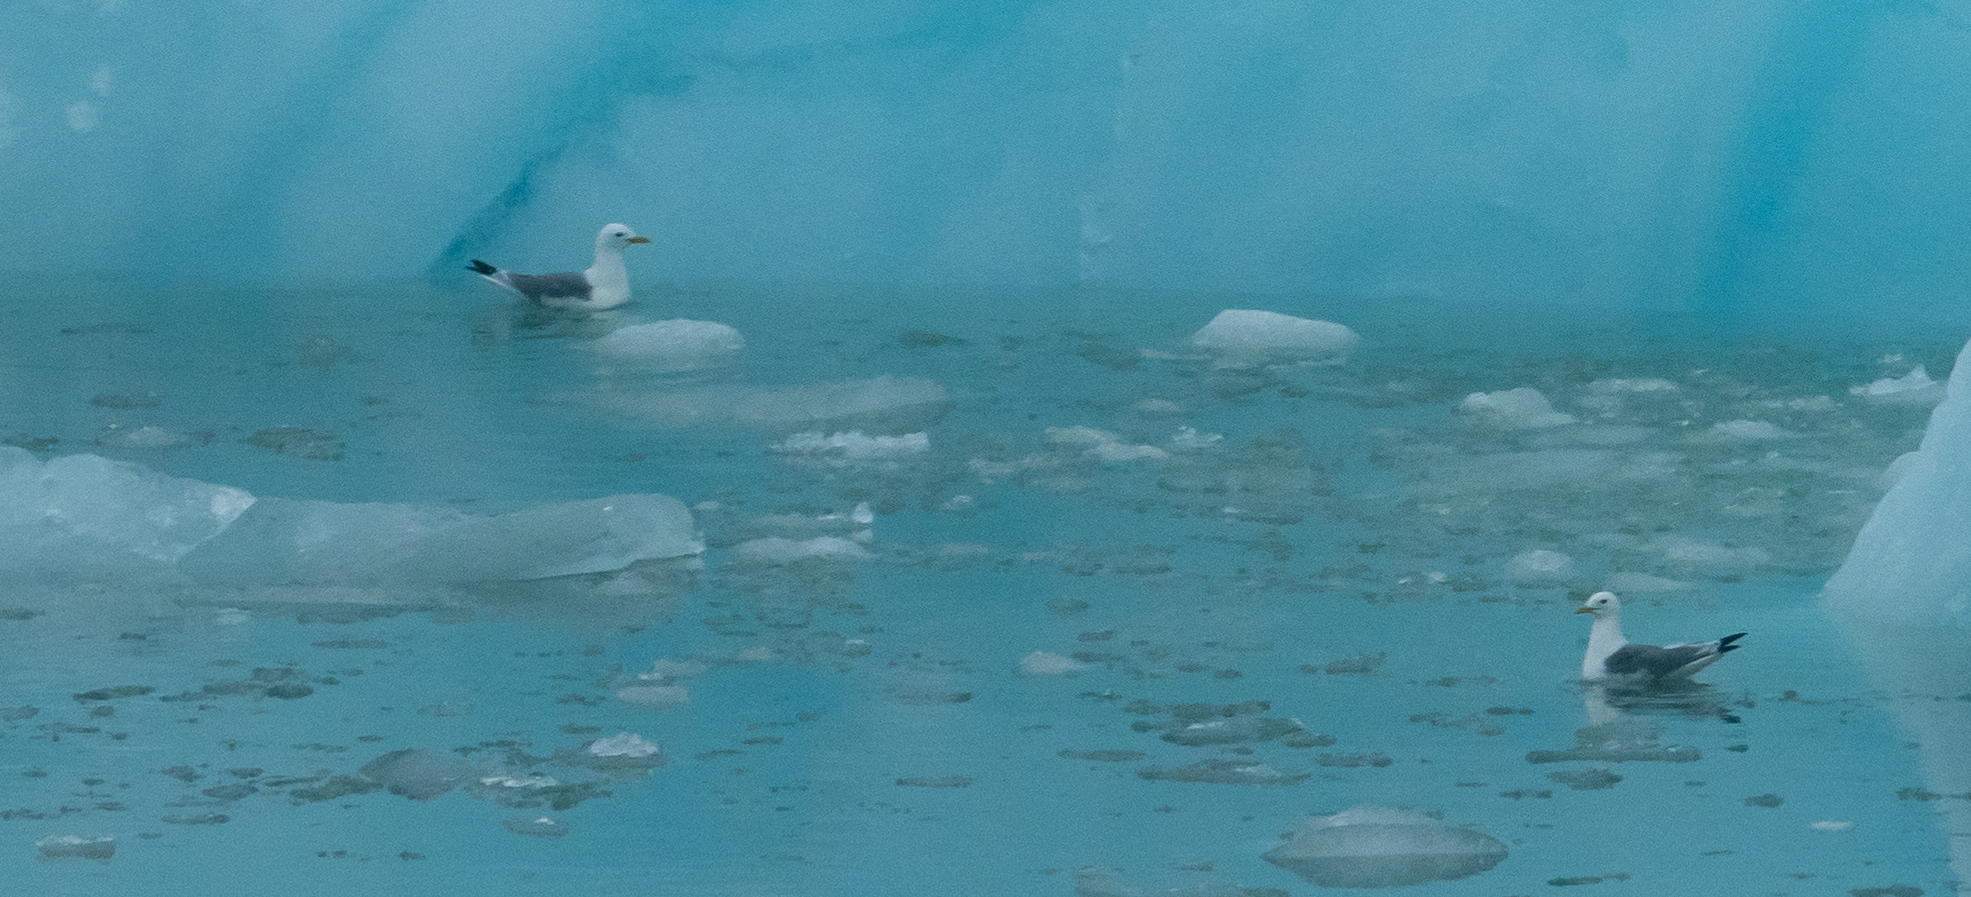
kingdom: Animalia
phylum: Chordata
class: Aves
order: Charadriiformes
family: Laridae
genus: Rissa
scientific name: Rissa tridactyla
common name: Black-legged kittiwake
